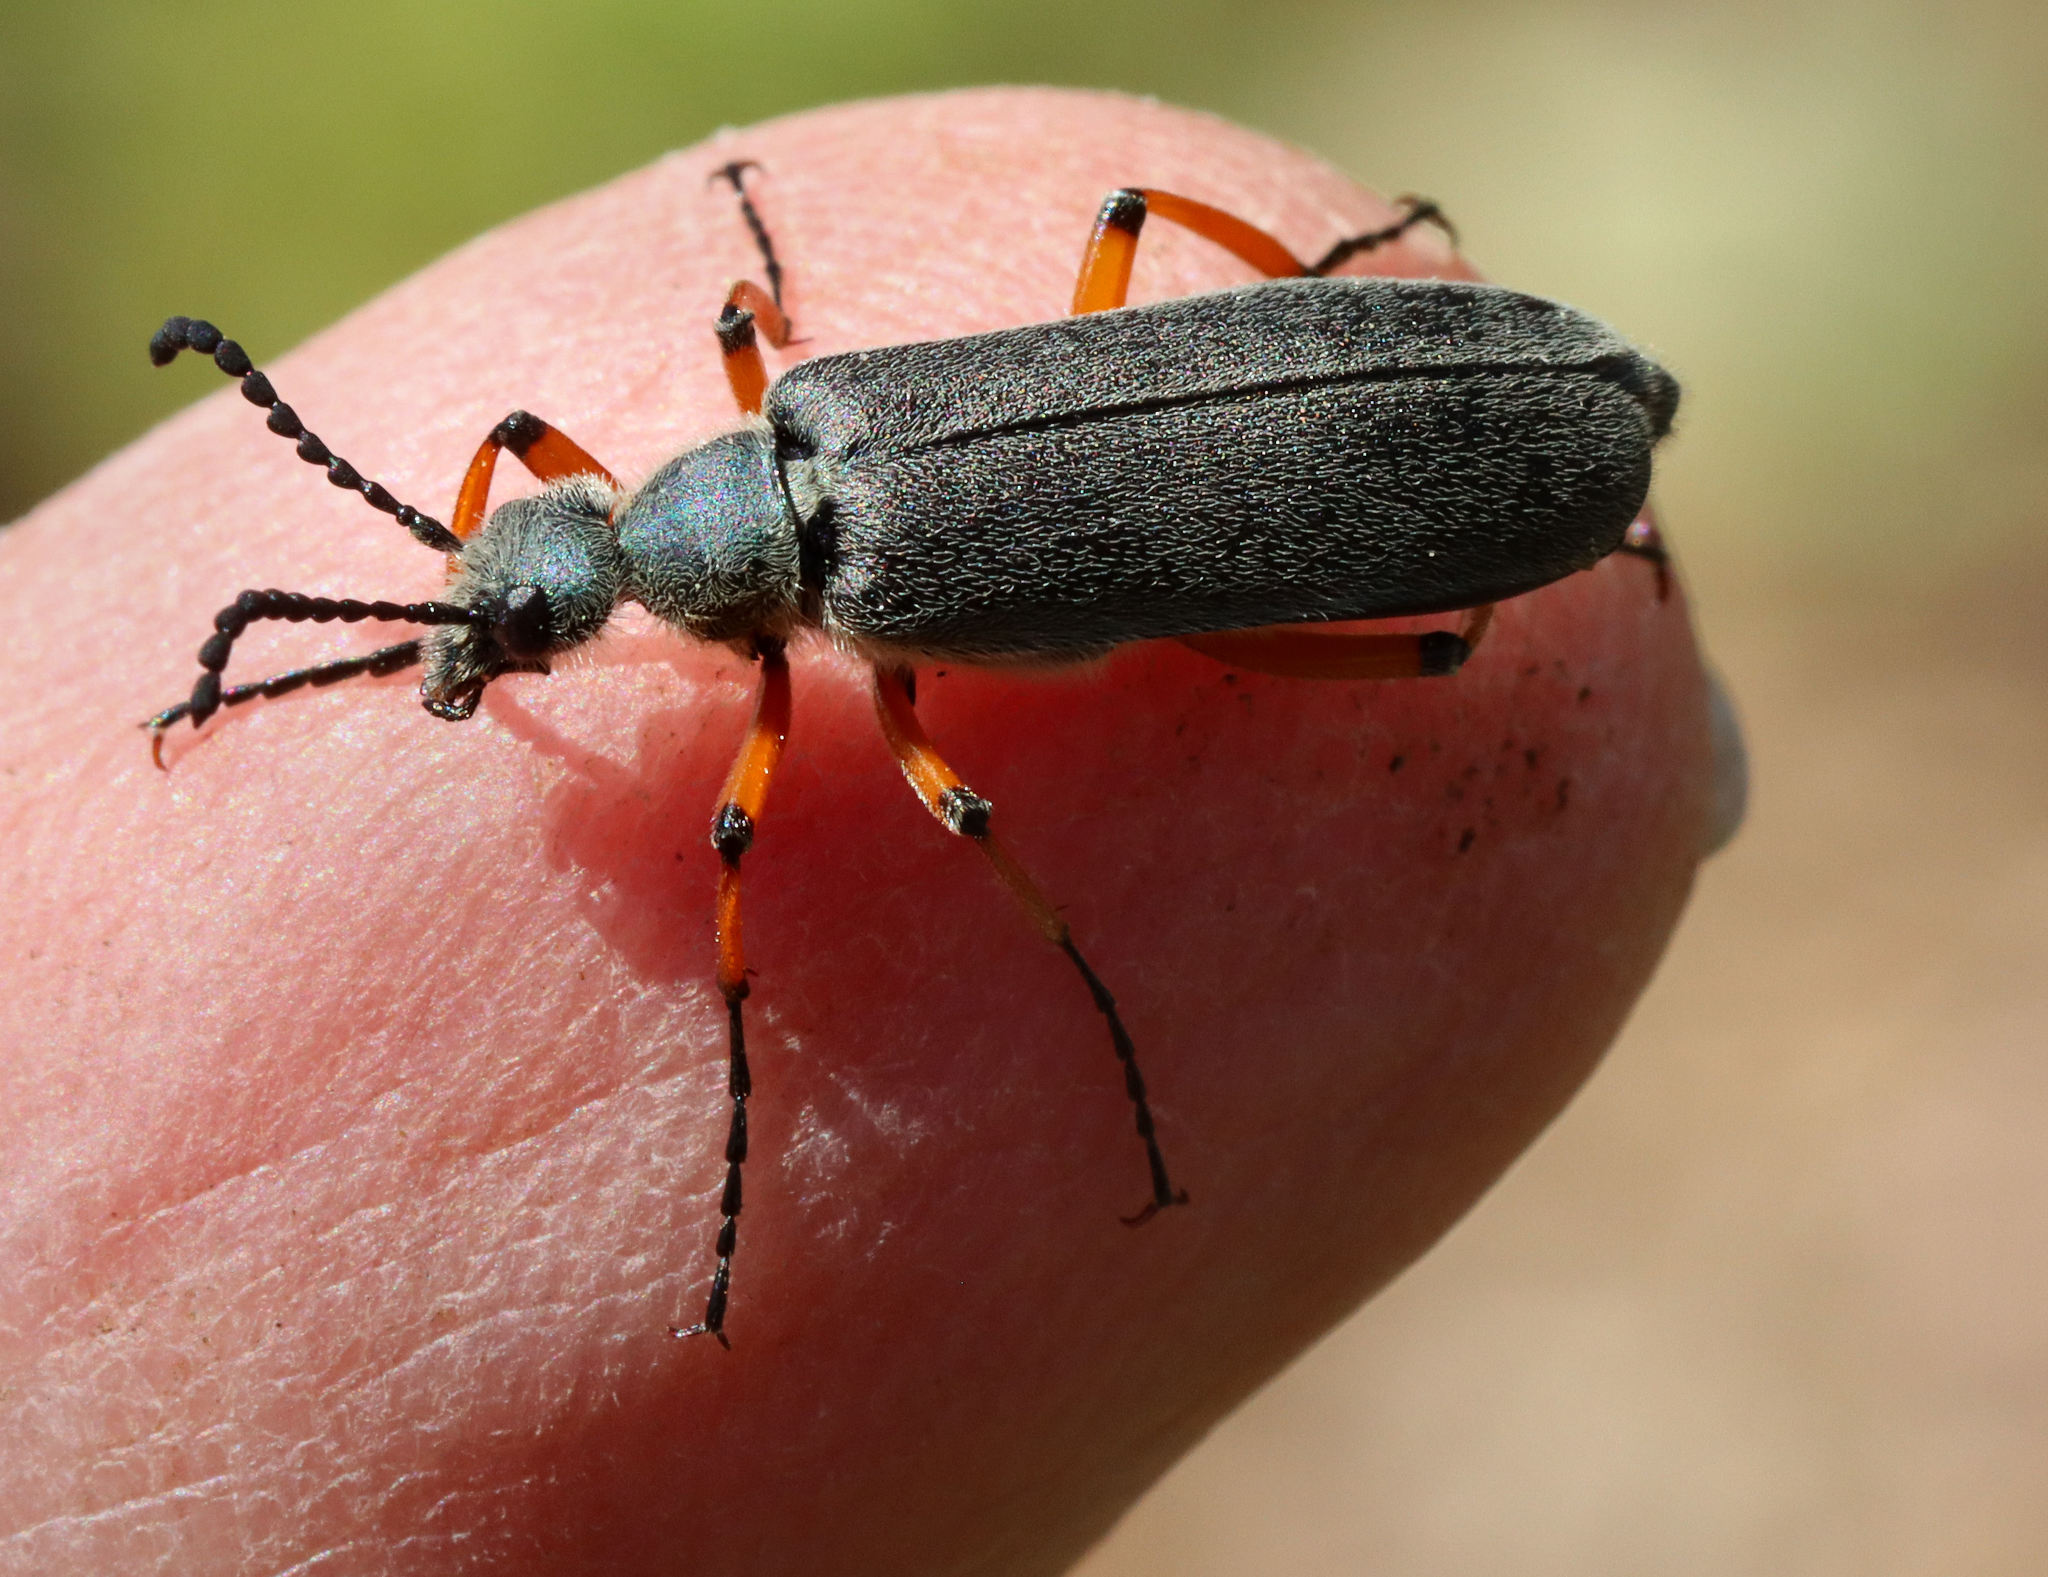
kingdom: Animalia
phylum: Arthropoda
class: Insecta
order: Coleoptera
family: Meloidae
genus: Lytta
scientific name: Lytta aenea
